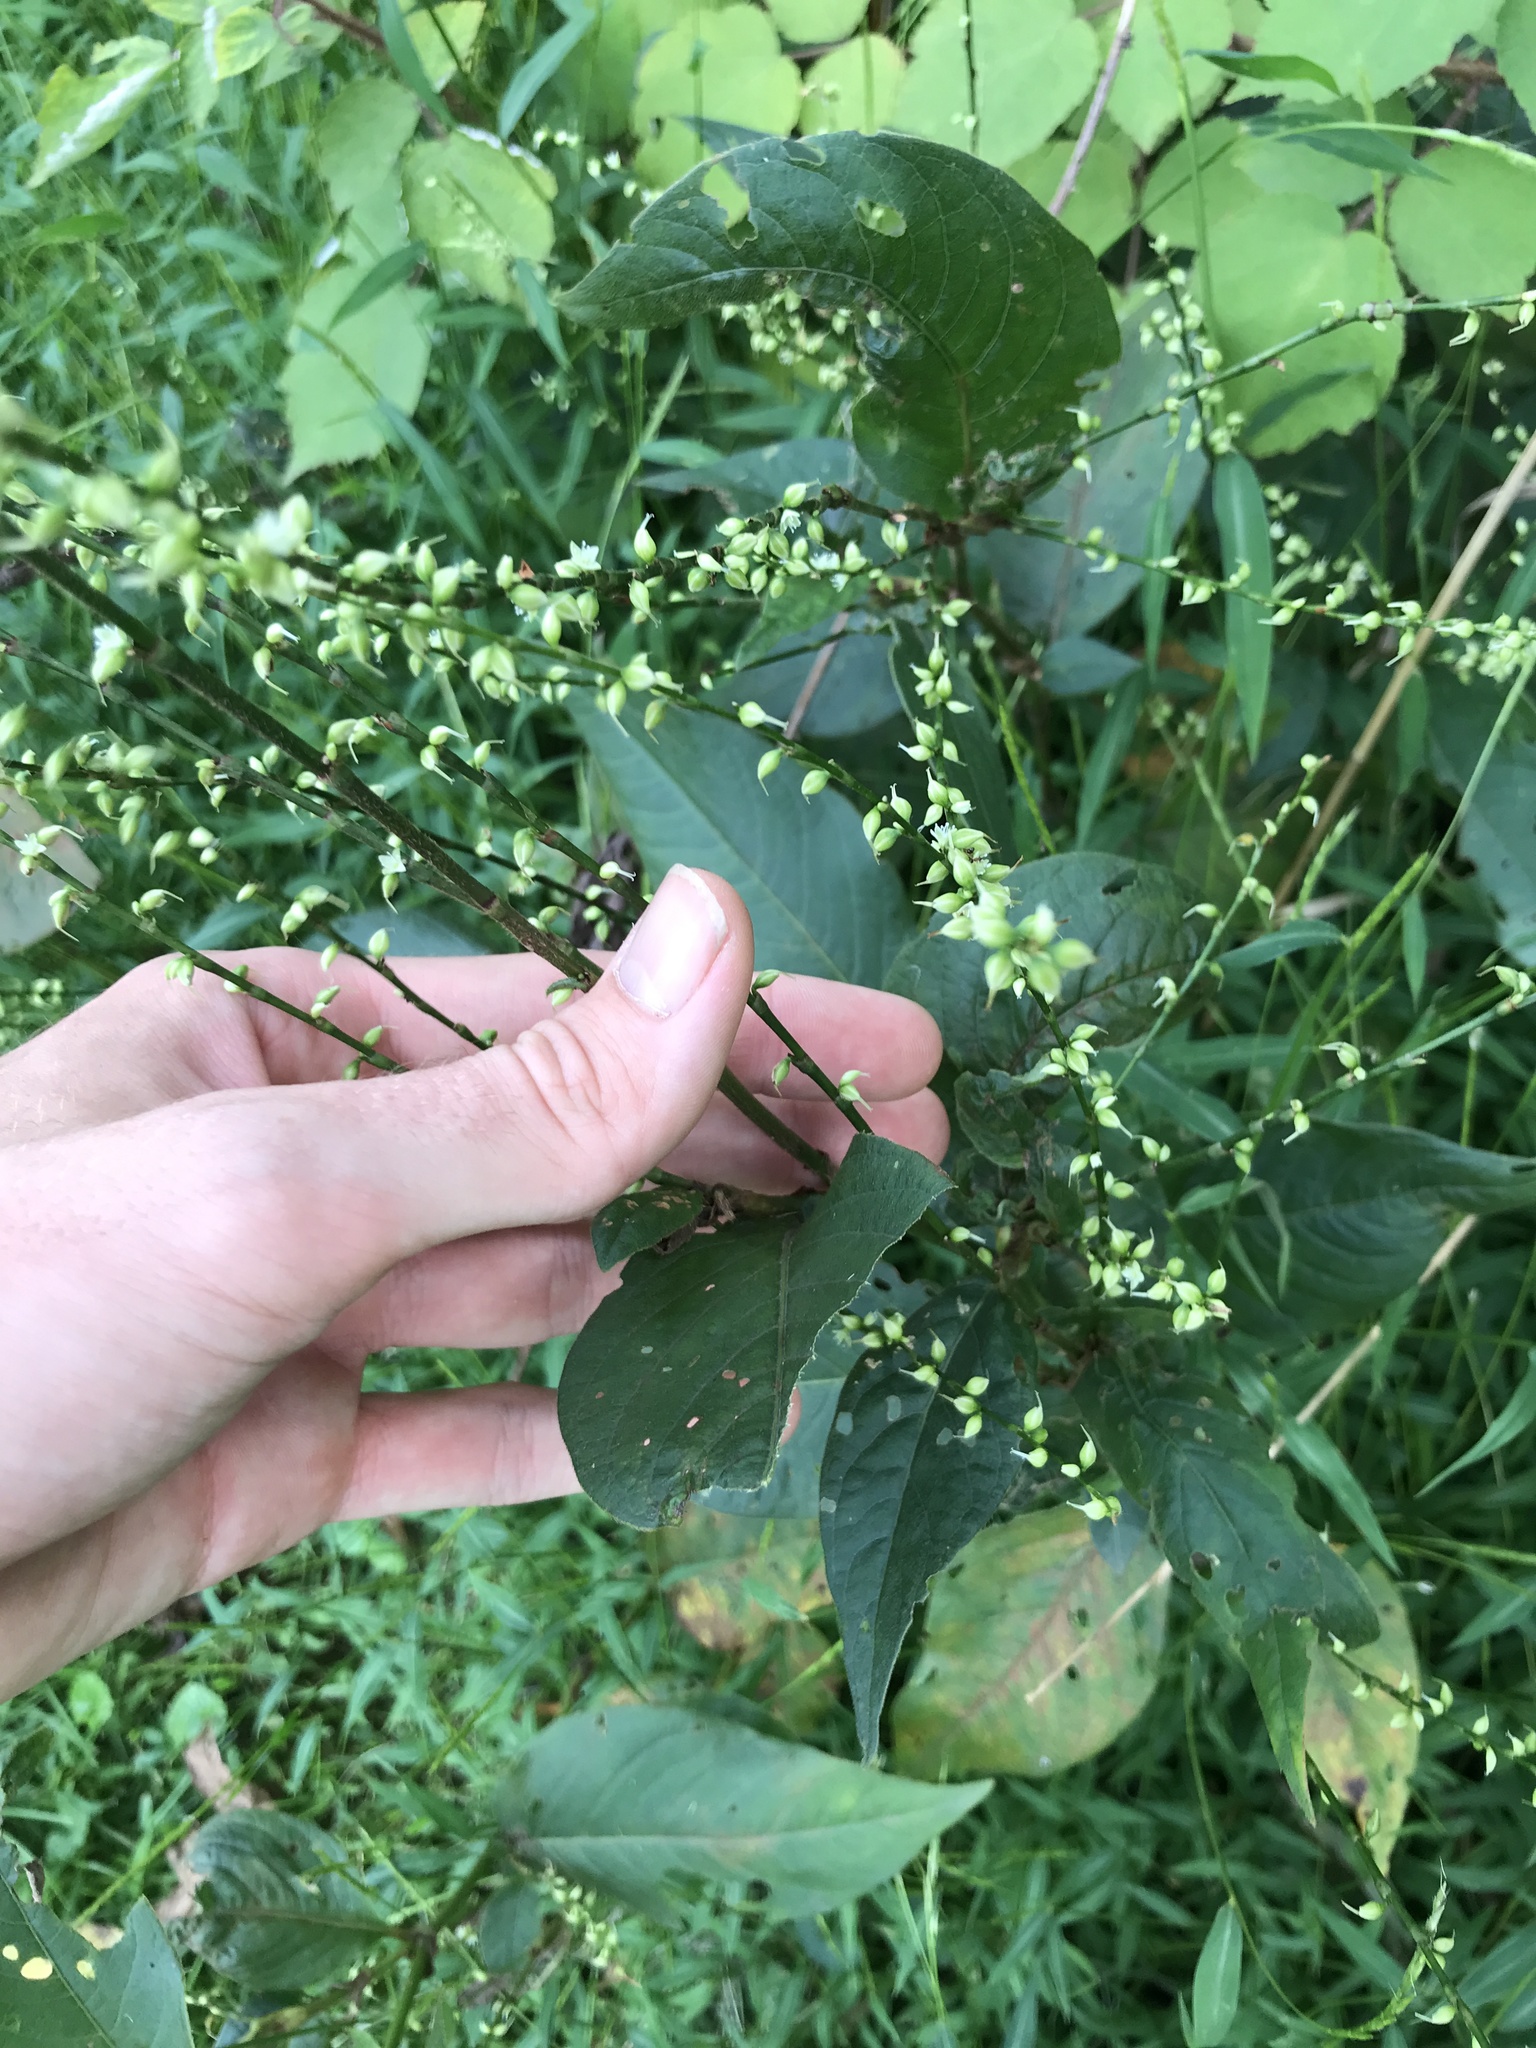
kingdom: Plantae
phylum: Tracheophyta
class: Magnoliopsida
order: Caryophyllales
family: Polygonaceae
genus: Persicaria
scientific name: Persicaria virginiana
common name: Jumpseed
